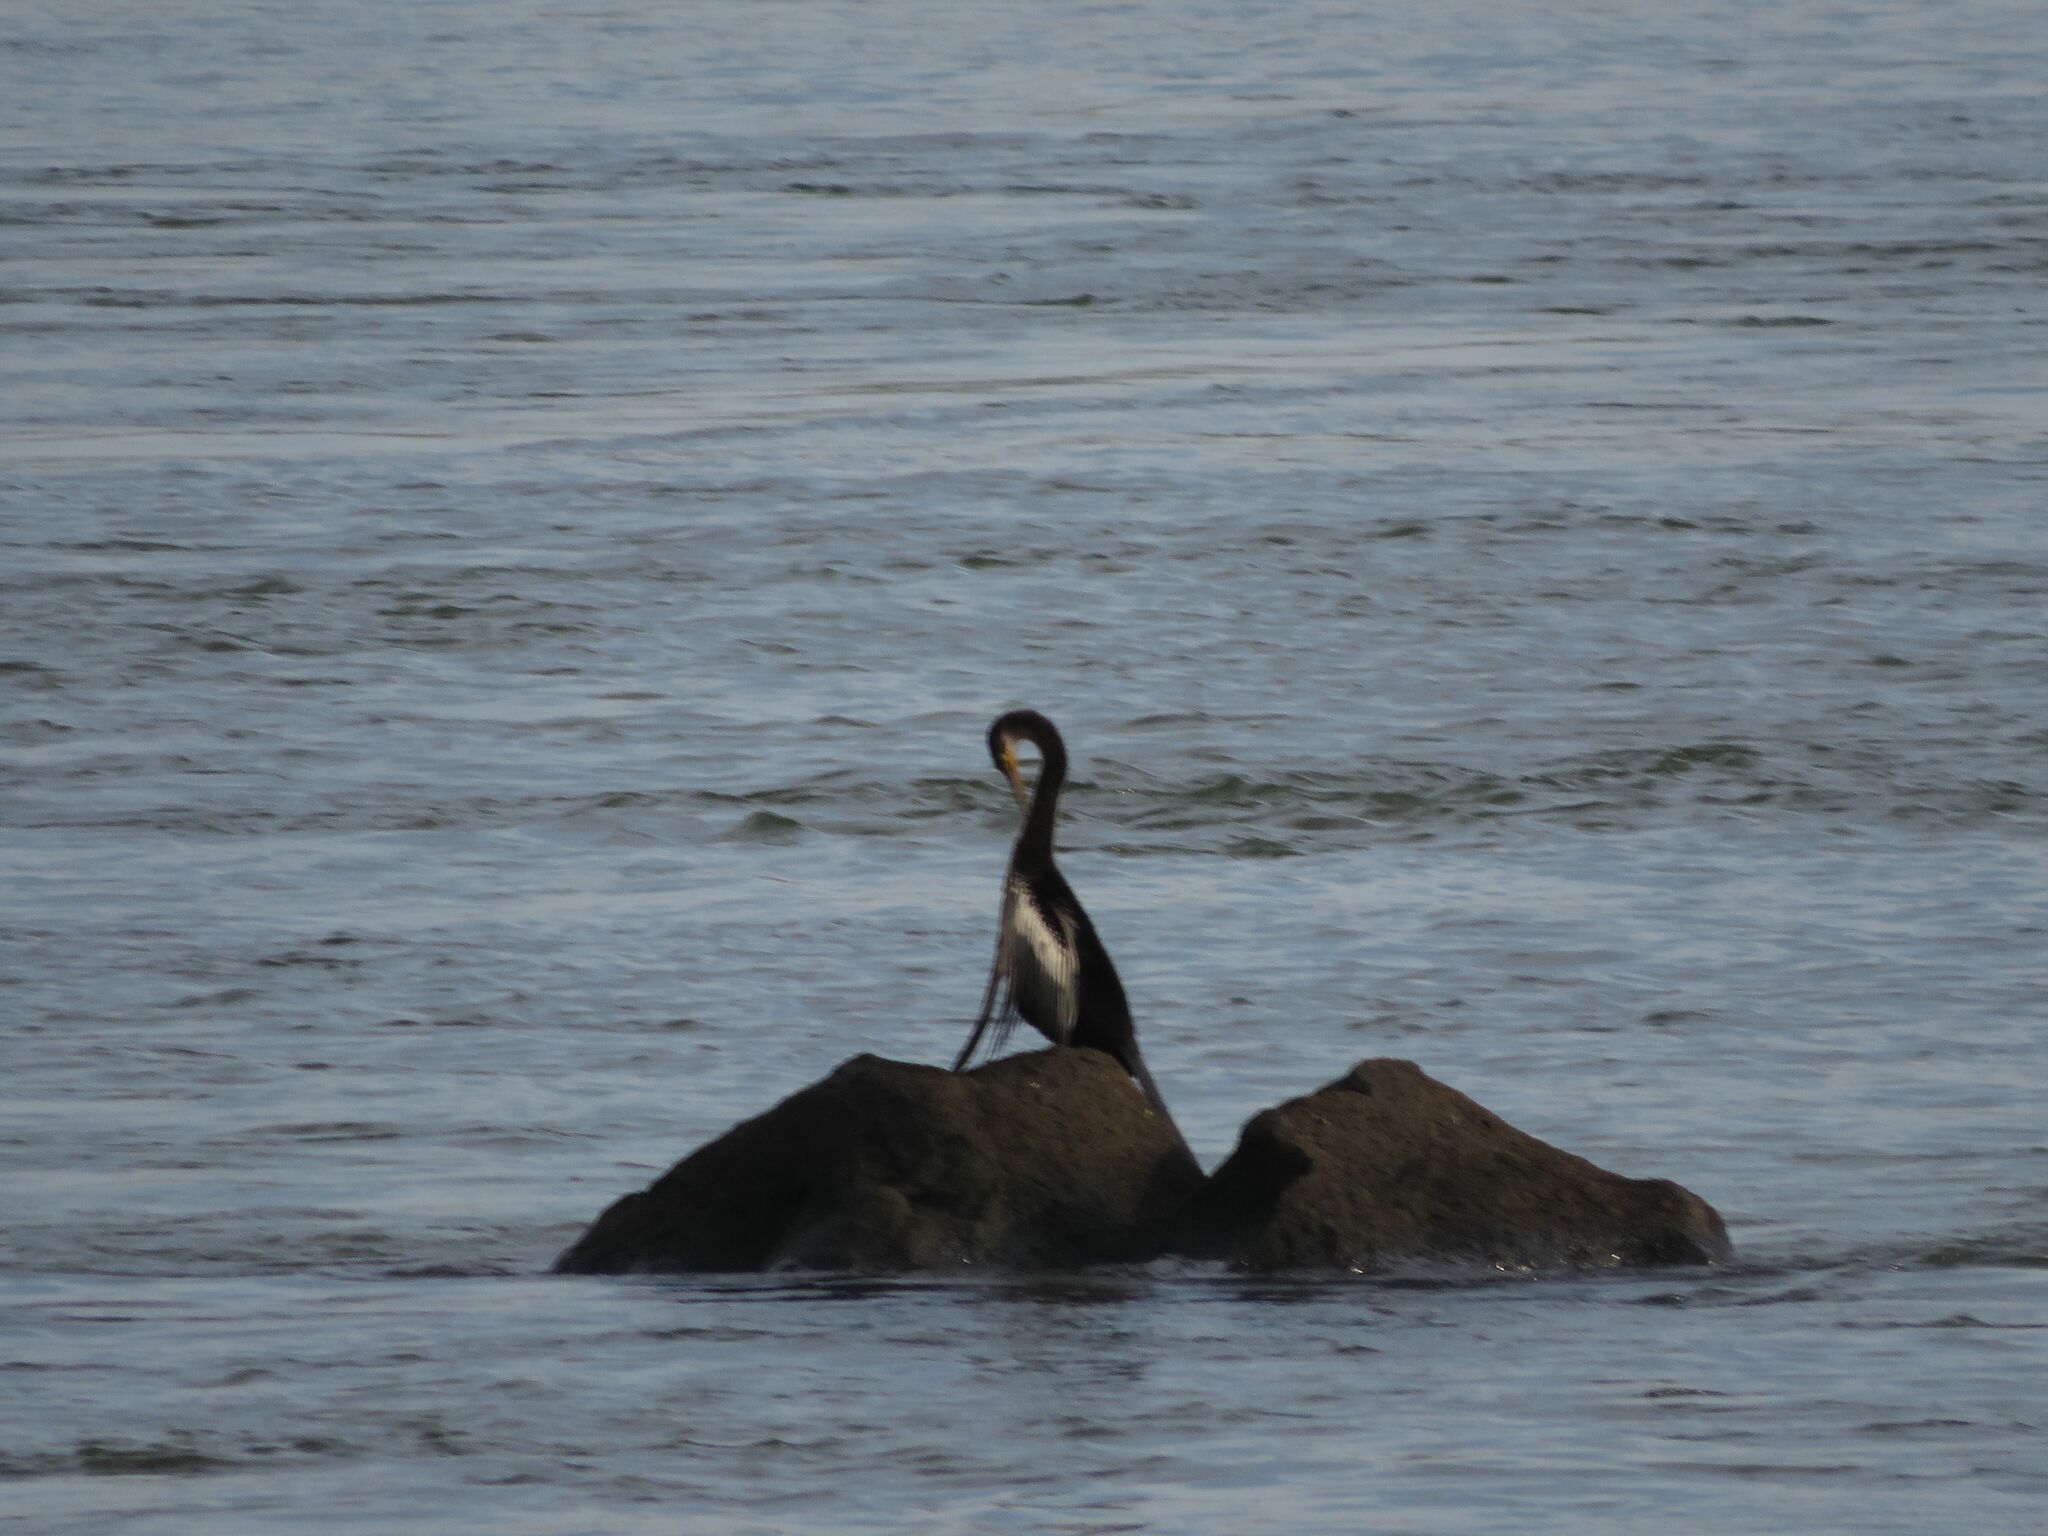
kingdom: Animalia
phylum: Chordata
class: Aves
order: Suliformes
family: Anhingidae
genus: Anhinga
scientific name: Anhinga anhinga
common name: Anhinga
